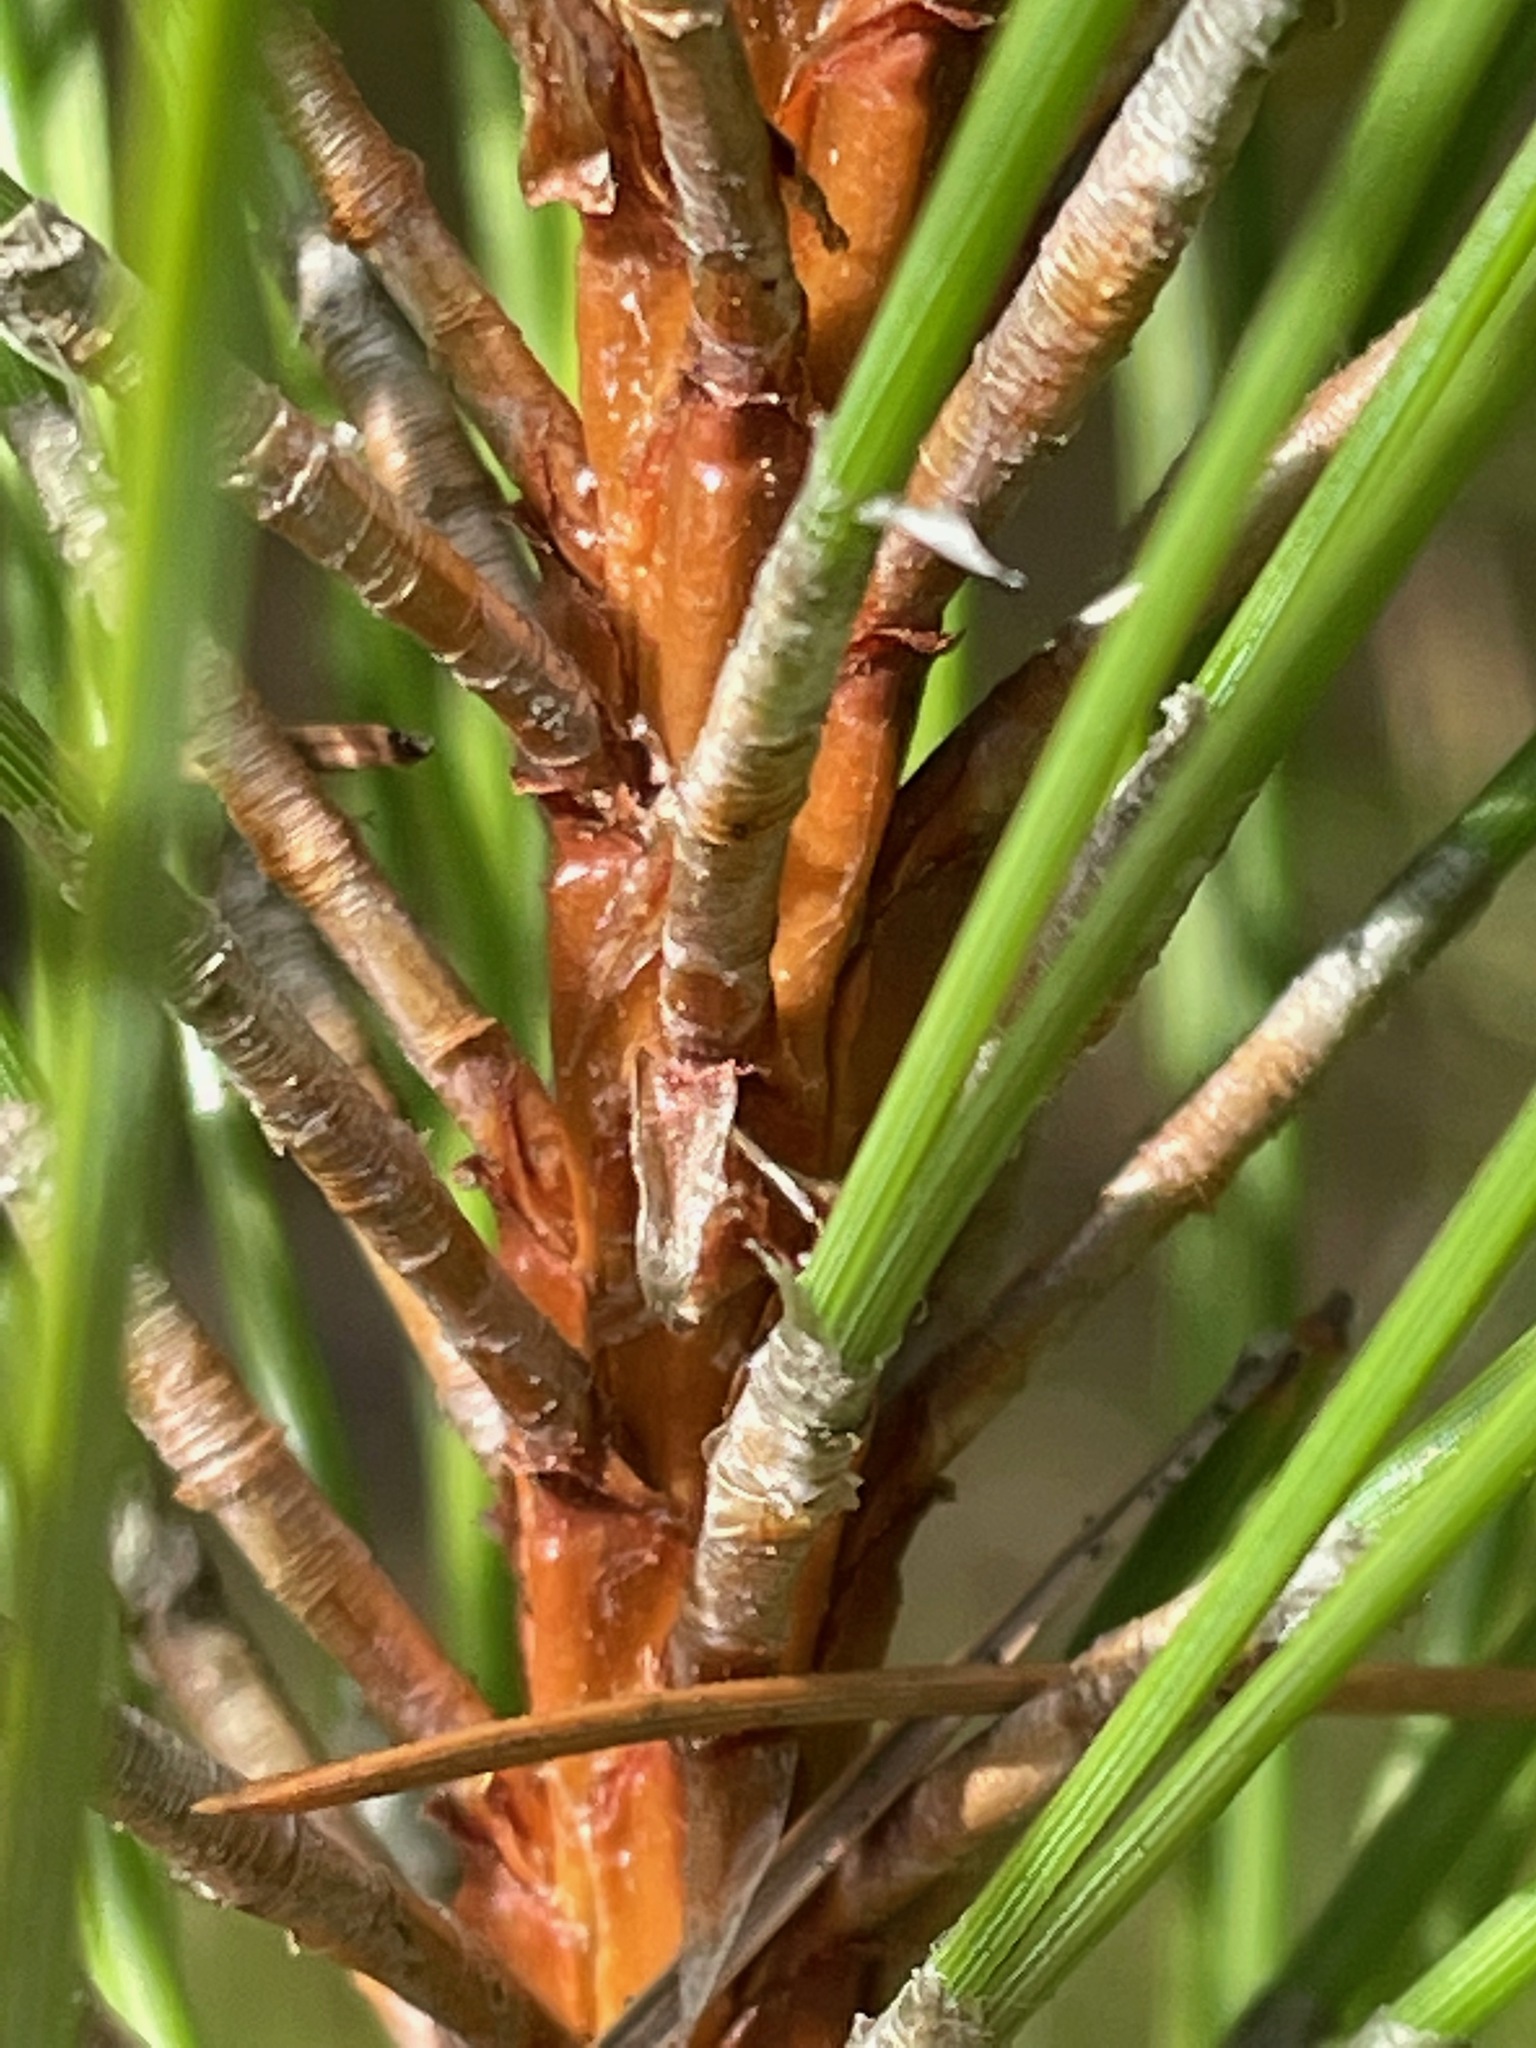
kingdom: Plantae
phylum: Tracheophyta
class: Pinopsida
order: Pinales
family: Pinaceae
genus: Pinus
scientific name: Pinus resinosa
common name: Norway pine
